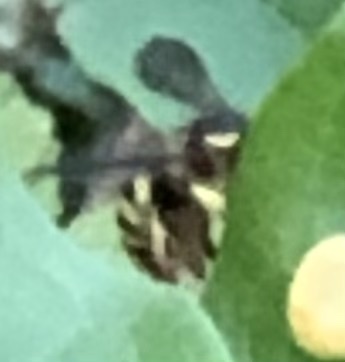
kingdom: Animalia
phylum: Arthropoda
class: Insecta
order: Hymenoptera
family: Megachilidae
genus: Anthidium
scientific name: Anthidium florentinum
